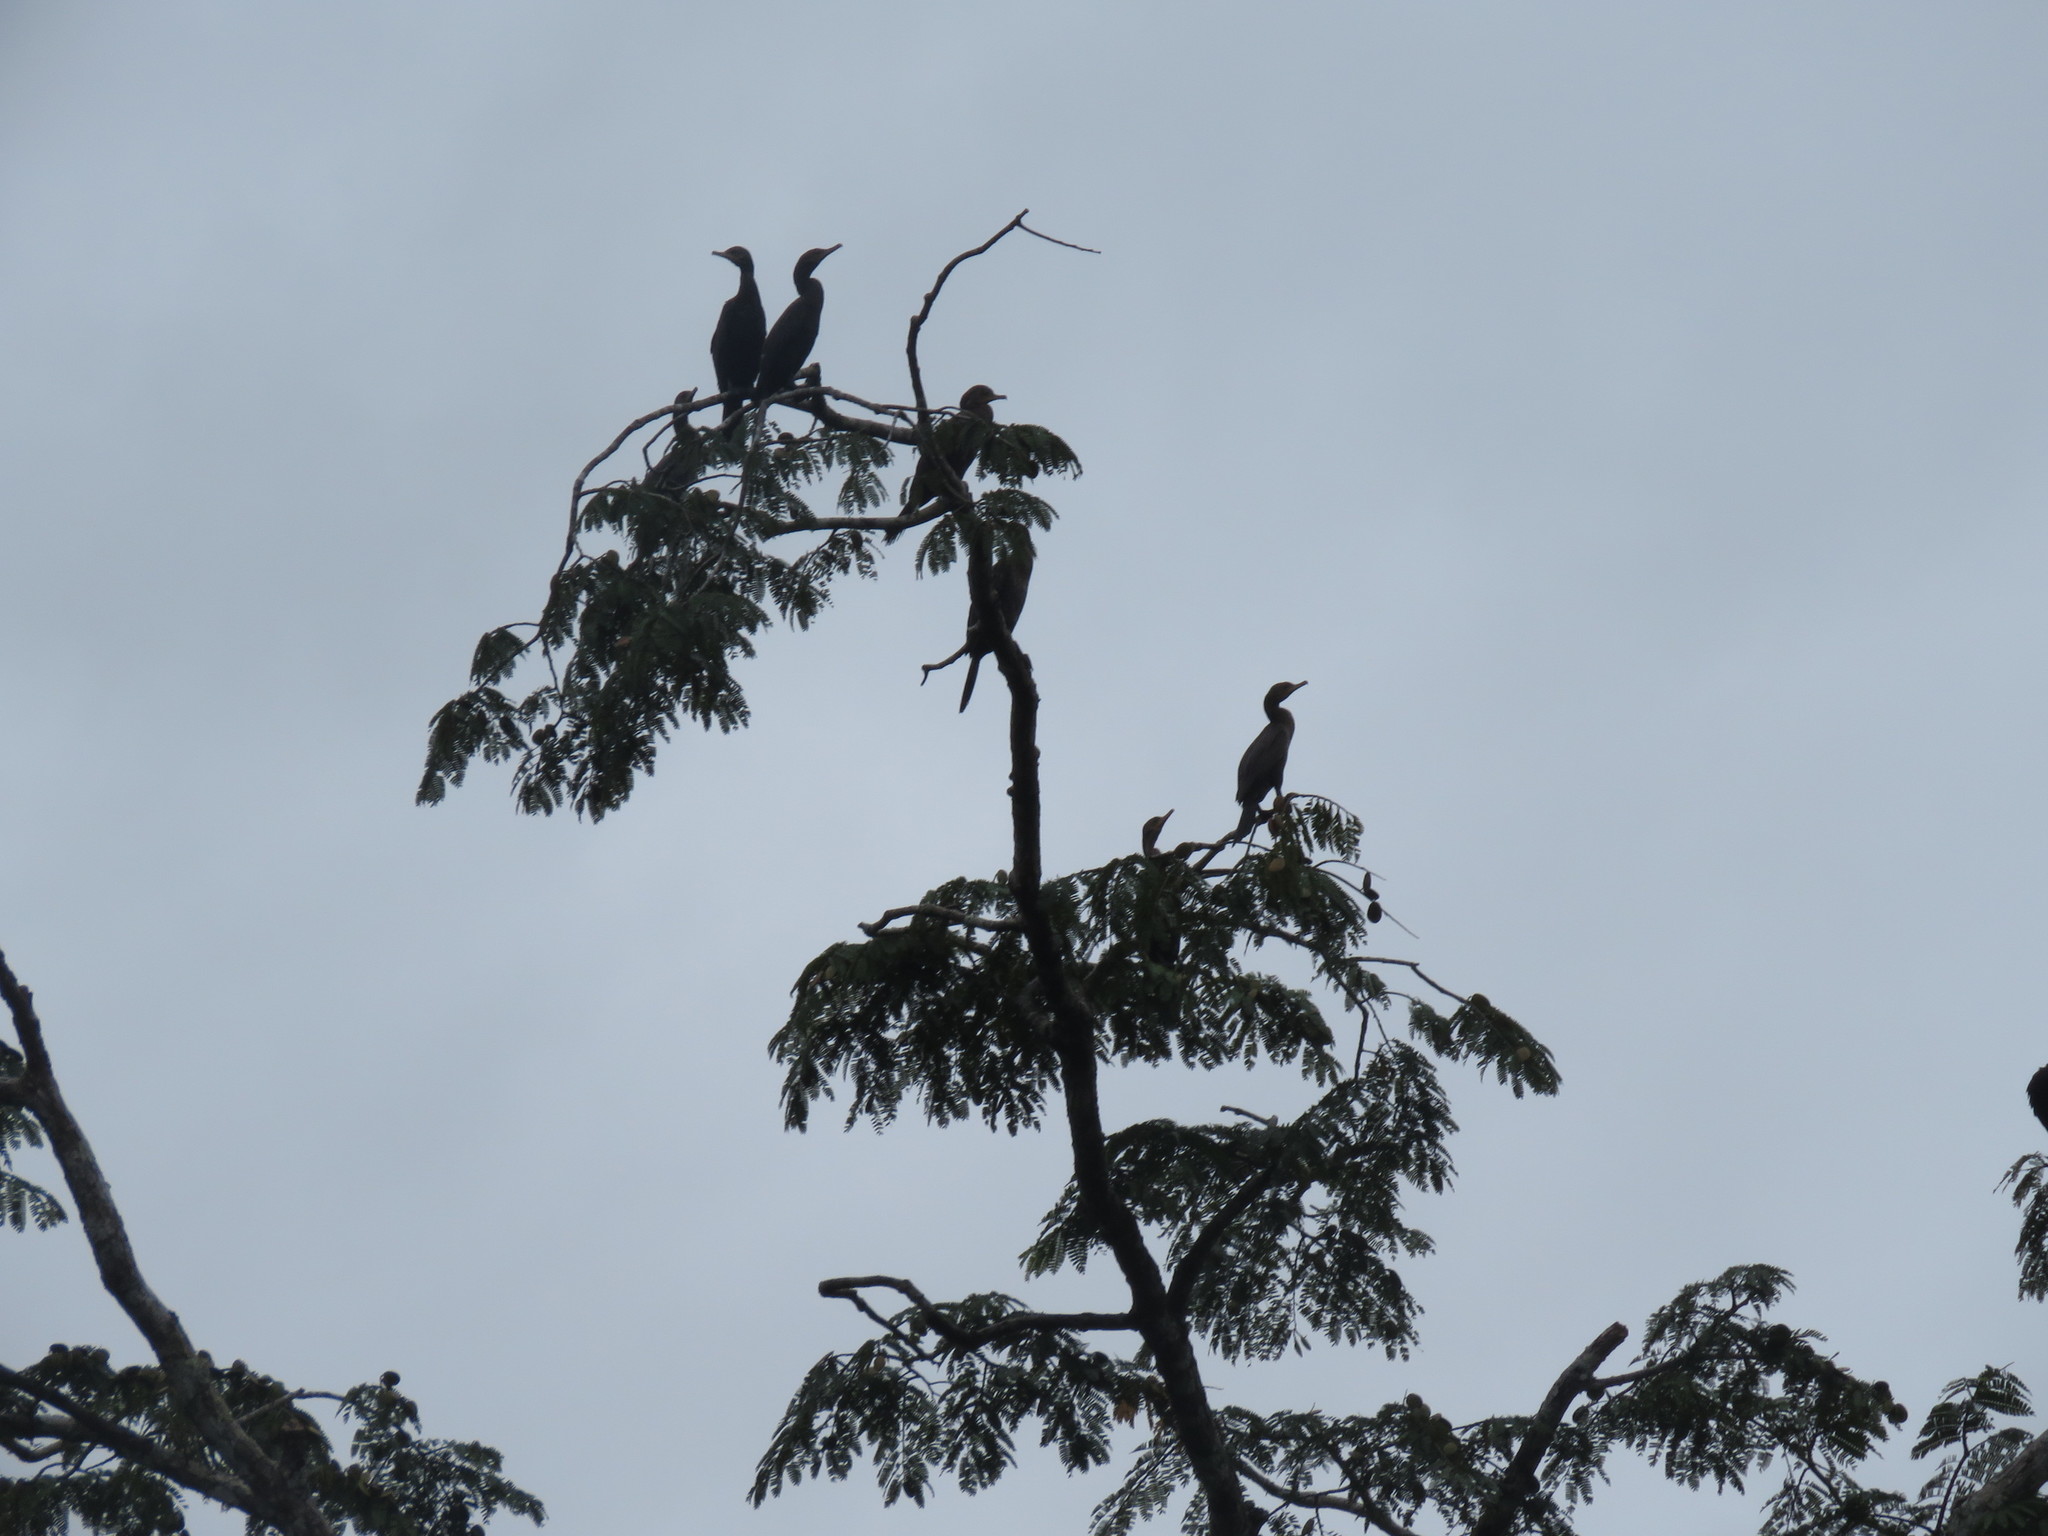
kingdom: Animalia
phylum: Chordata
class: Aves
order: Suliformes
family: Phalacrocoracidae
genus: Phalacrocorax
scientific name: Phalacrocorax brasilianus
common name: Neotropic cormorant
